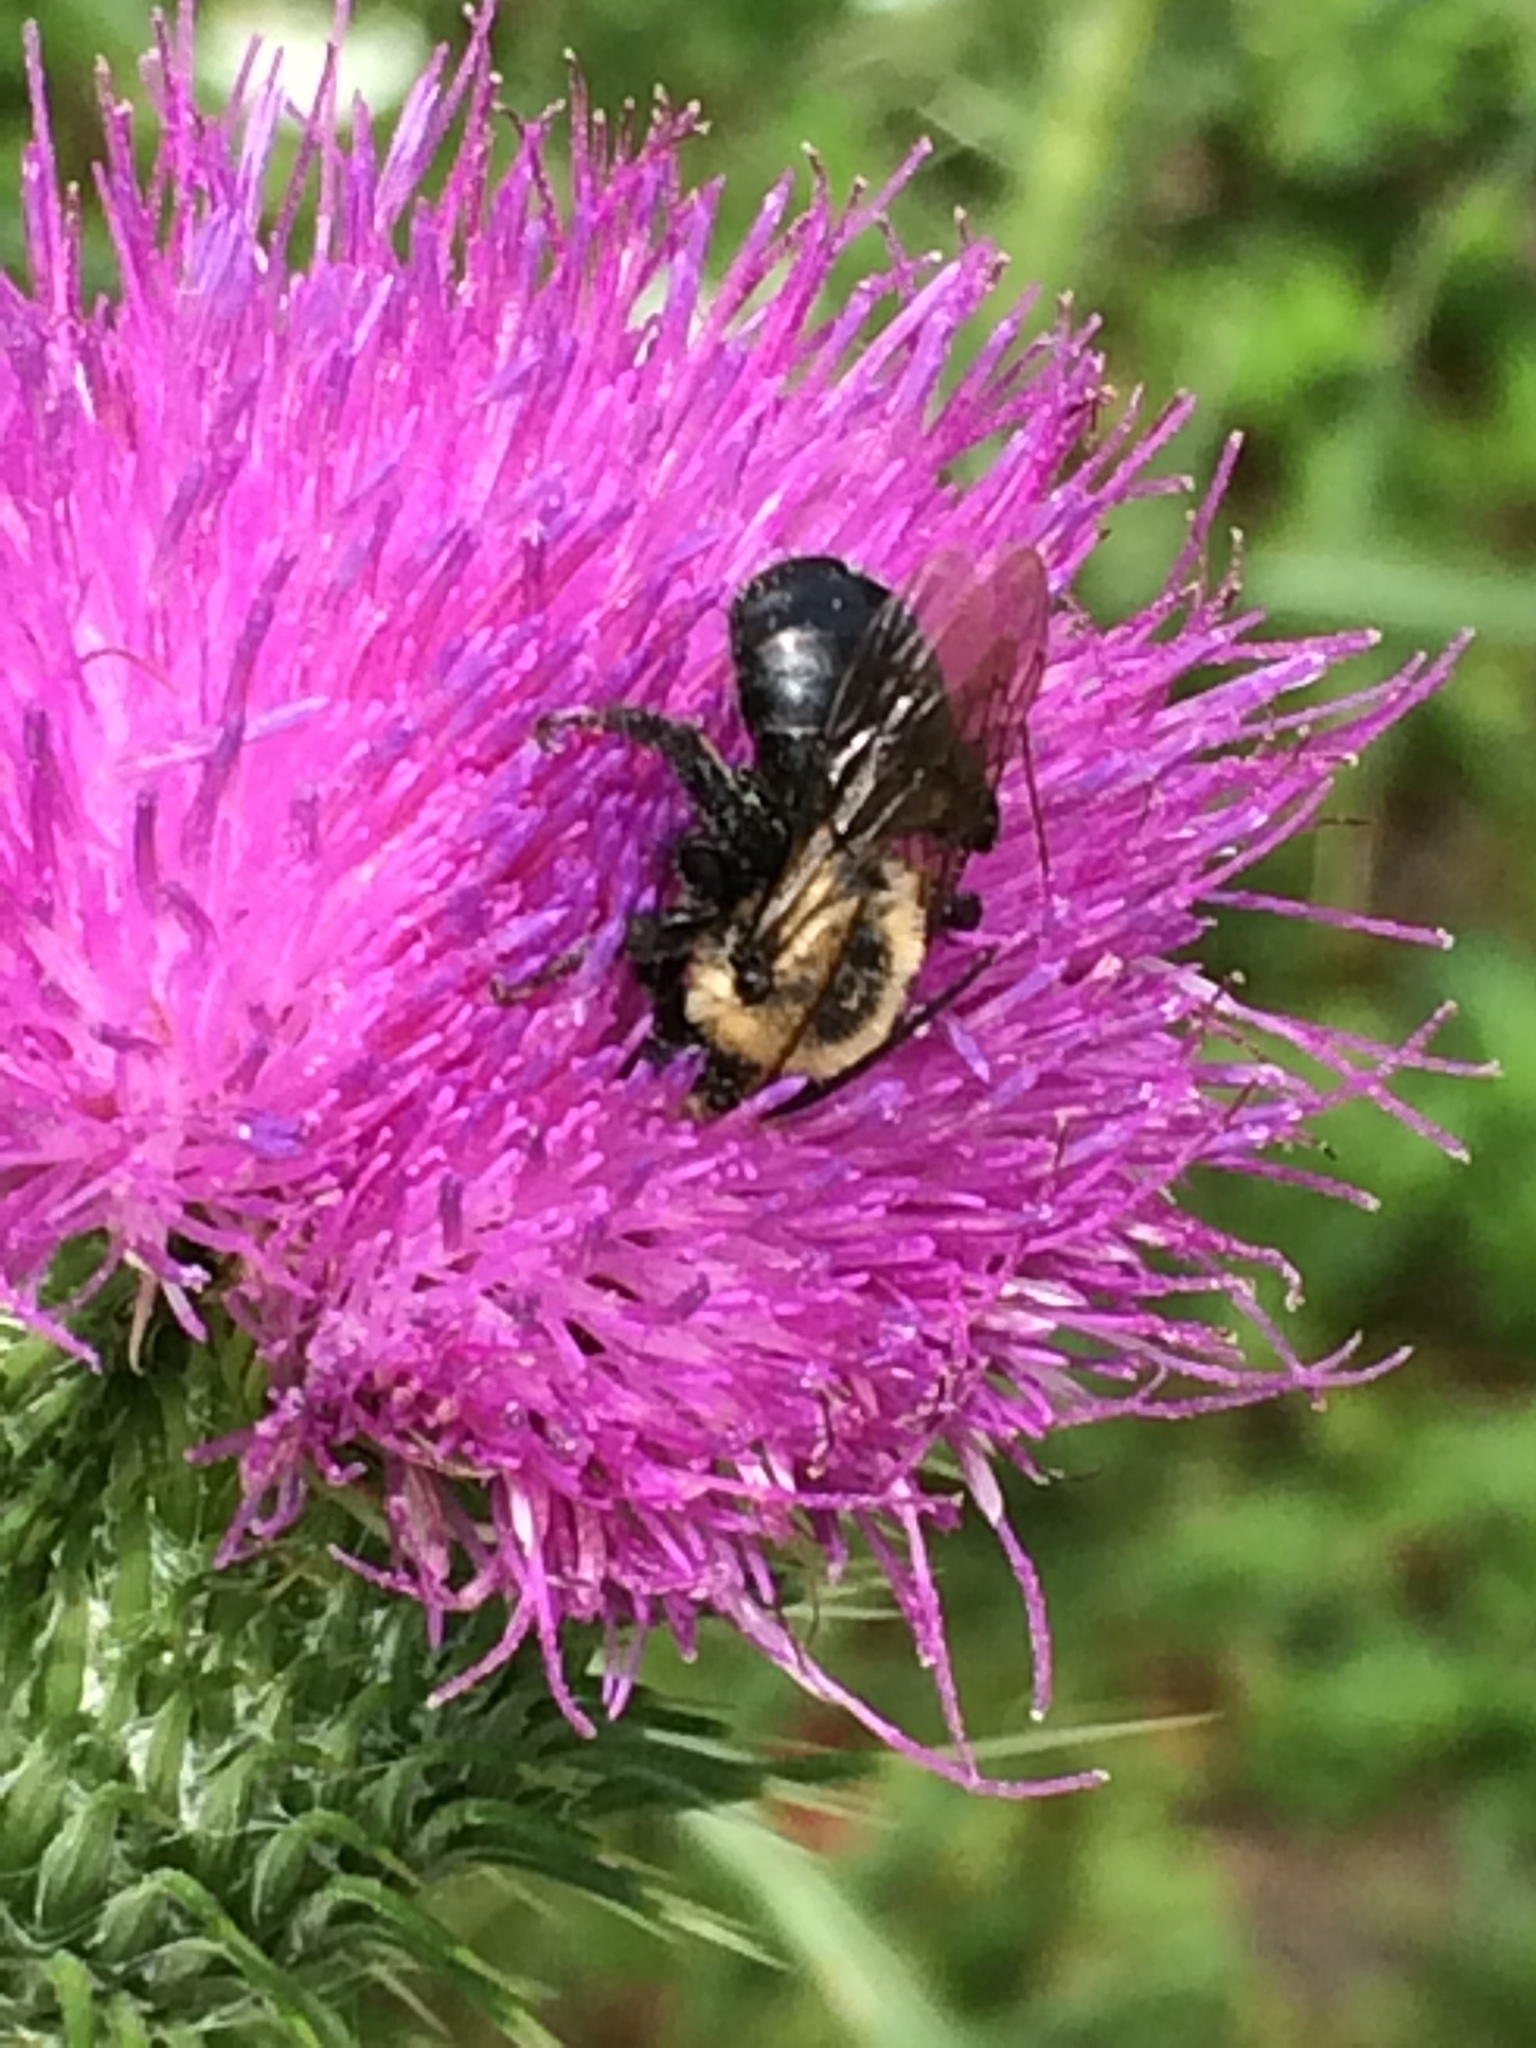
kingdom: Animalia
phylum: Arthropoda
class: Insecta
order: Hymenoptera
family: Apidae
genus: Melissodes
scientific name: Melissodes desponsus
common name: Thistle long-horned bee
